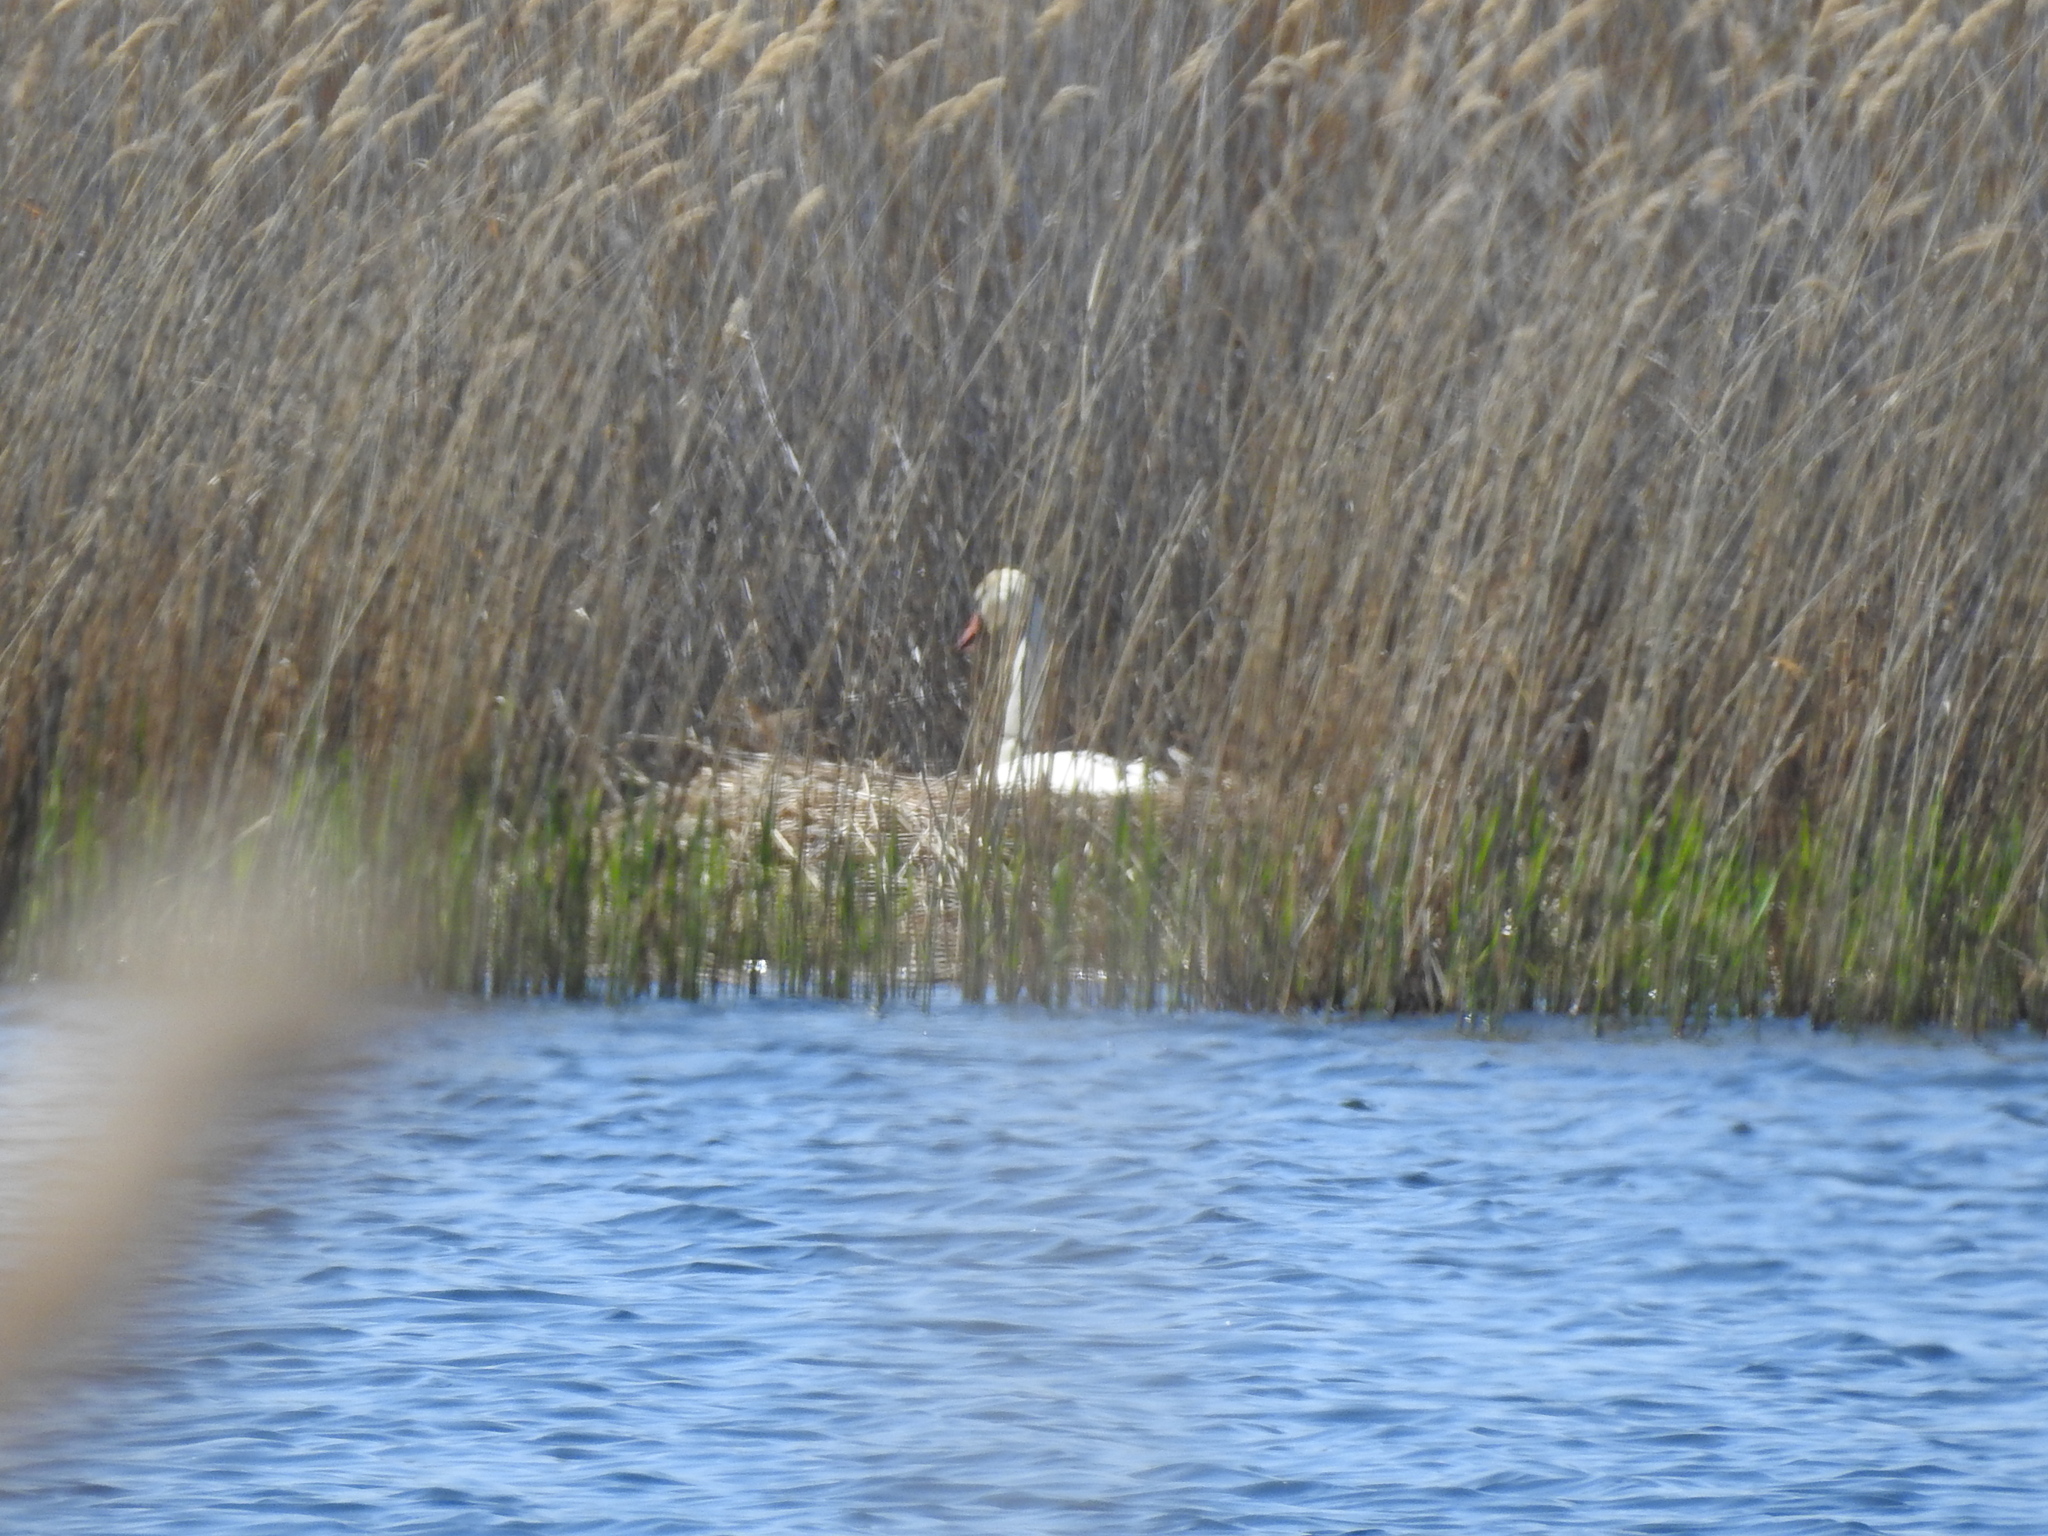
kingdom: Animalia
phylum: Chordata
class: Aves
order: Anseriformes
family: Anatidae
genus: Cygnus
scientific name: Cygnus olor
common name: Mute swan
